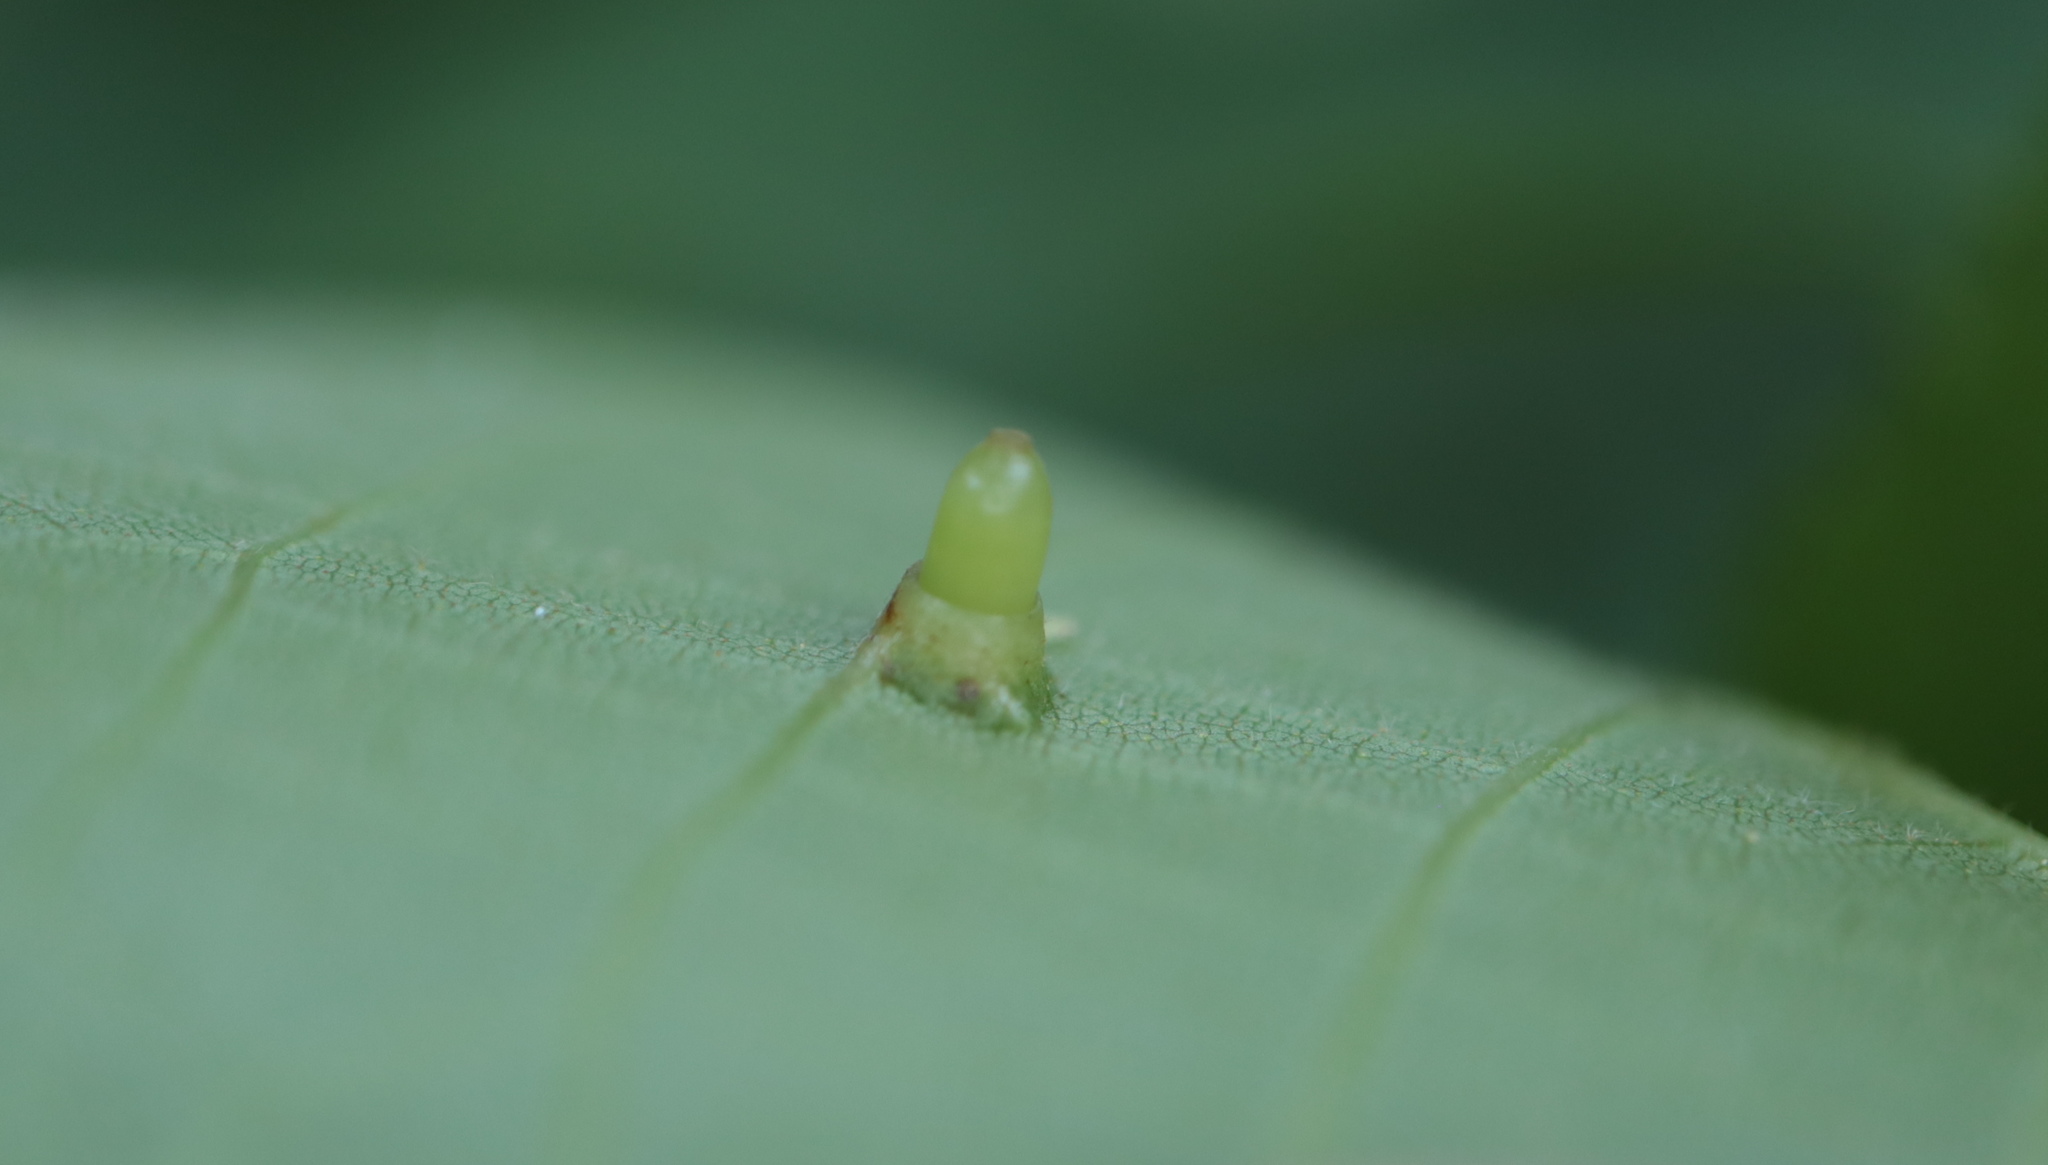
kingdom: Animalia
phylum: Arthropoda
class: Insecta
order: Diptera
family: Cecidomyiidae
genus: Caryomyia
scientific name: Caryomyia tubicola
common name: Hickory bullet gall midge
